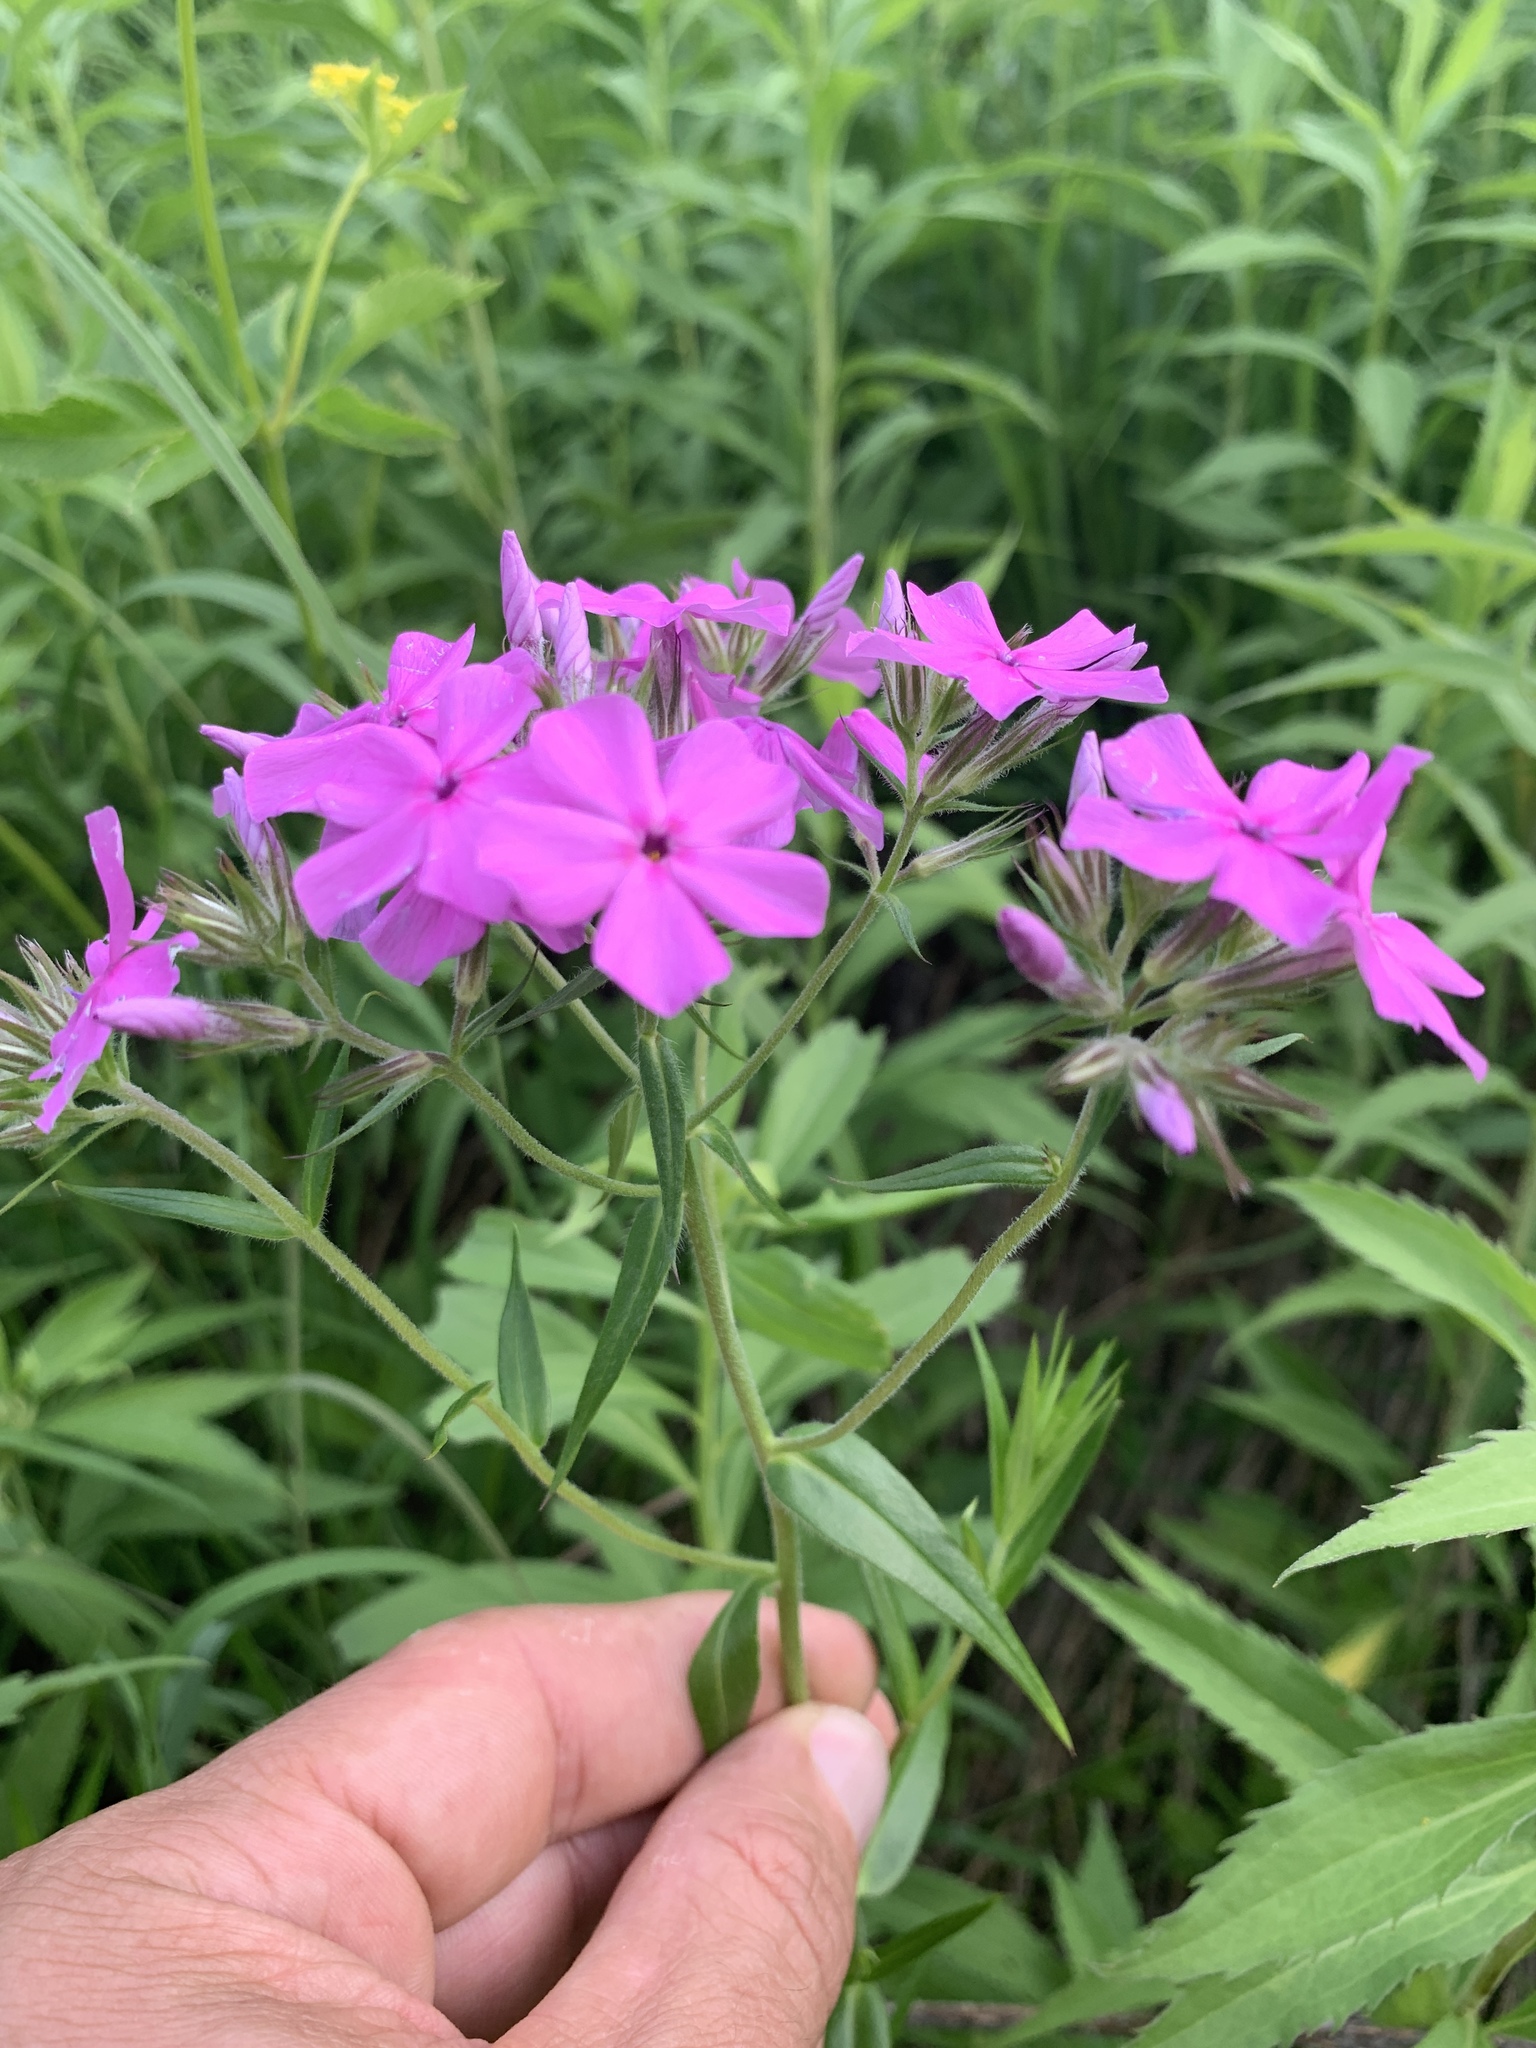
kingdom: Plantae
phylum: Tracheophyta
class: Magnoliopsida
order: Ericales
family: Polemoniaceae
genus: Phlox
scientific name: Phlox pilosa
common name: Prairie phlox
